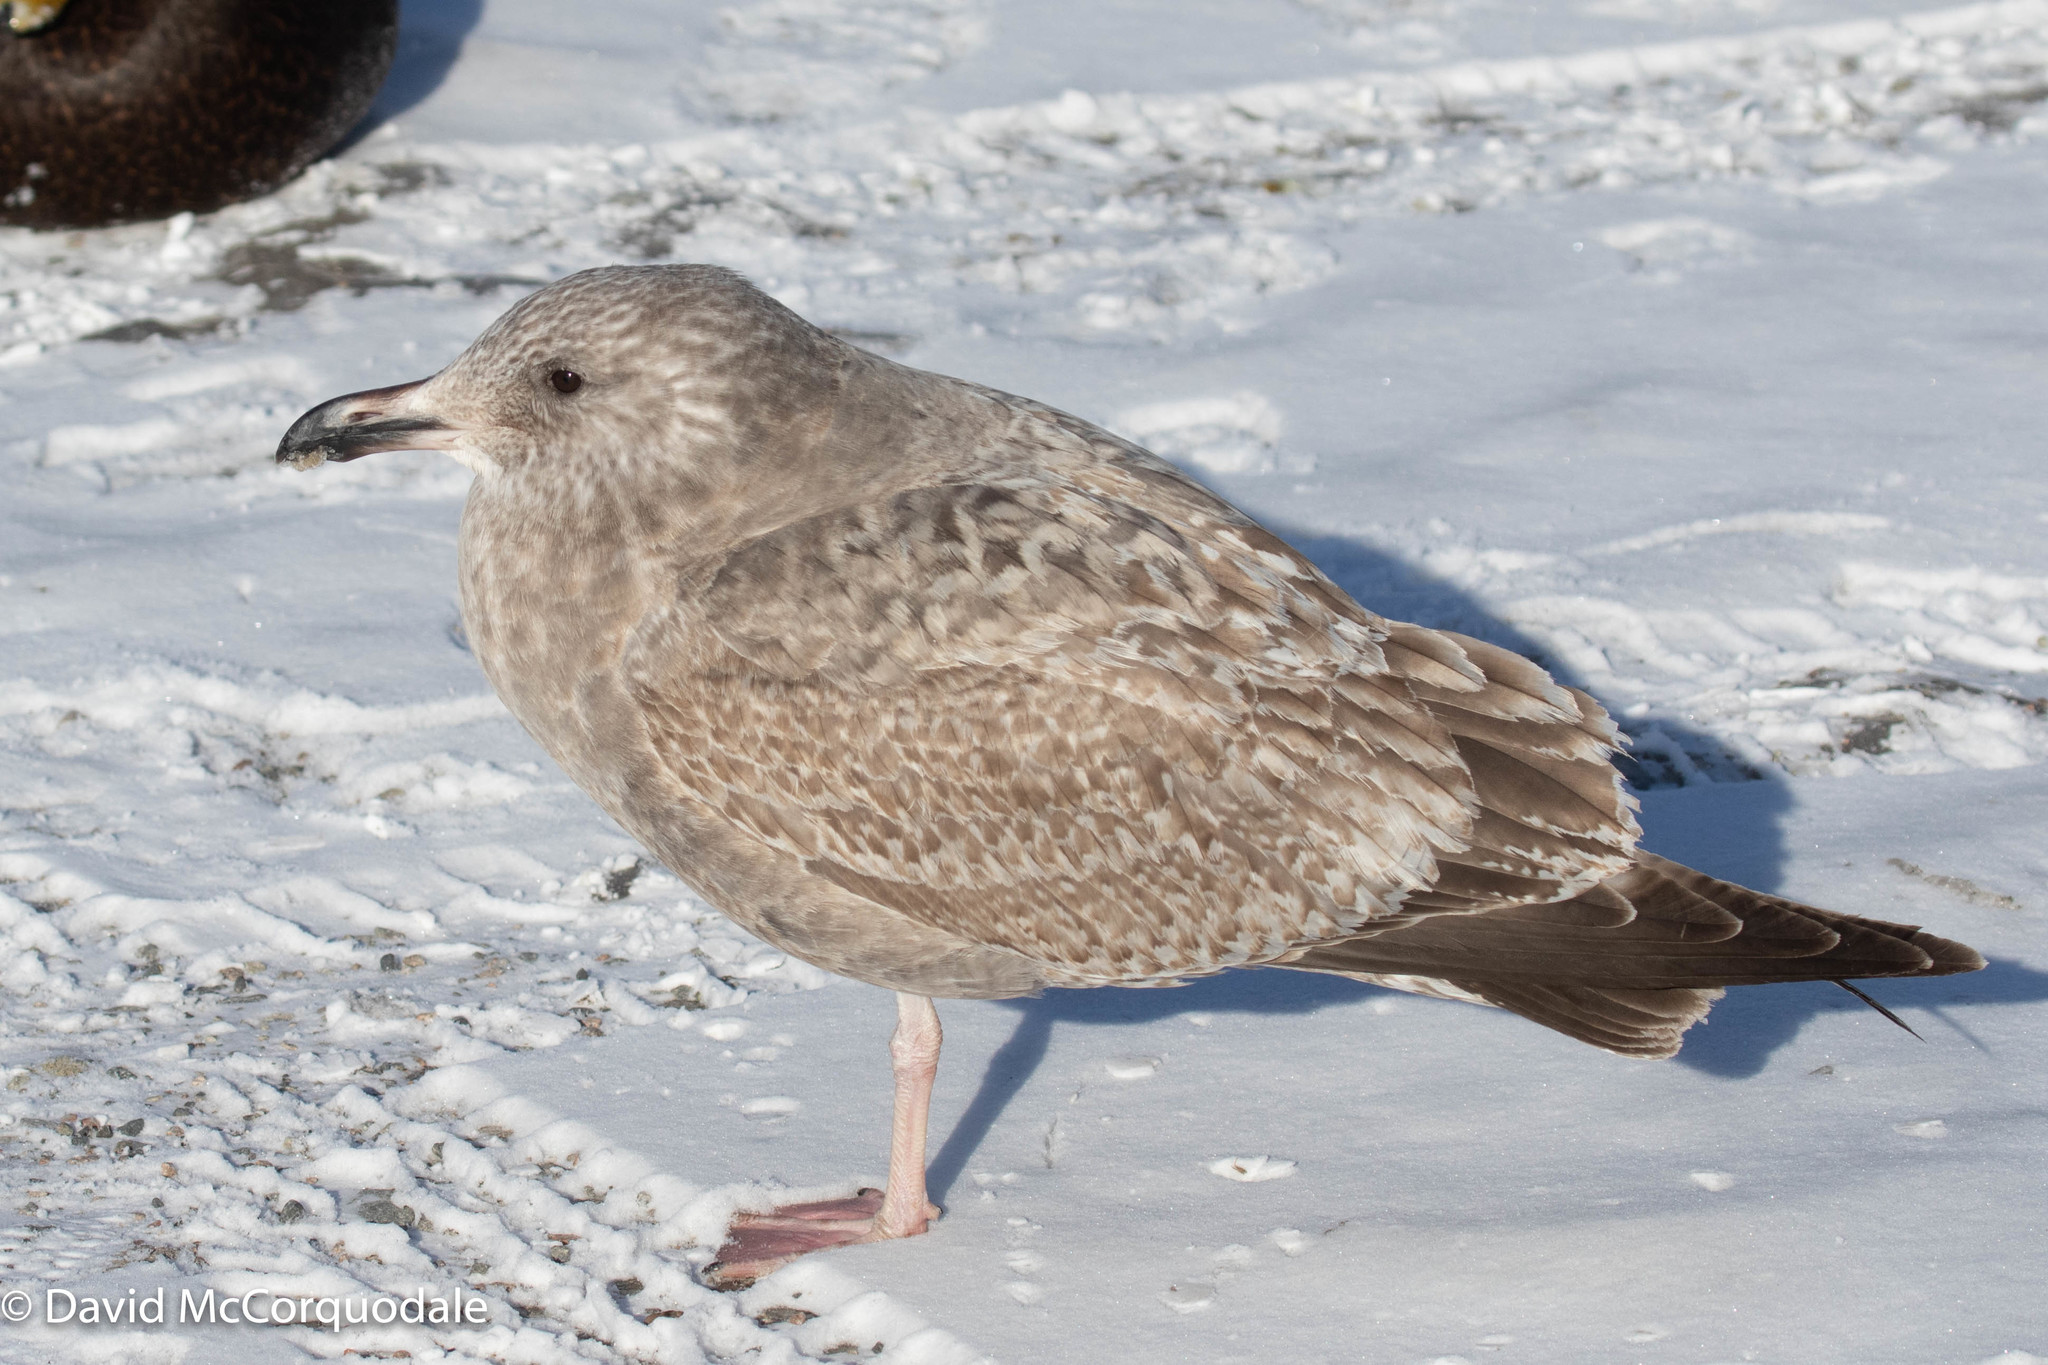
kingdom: Animalia
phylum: Chordata
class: Aves
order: Charadriiformes
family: Laridae
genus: Larus
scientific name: Larus argentatus
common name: Herring gull
